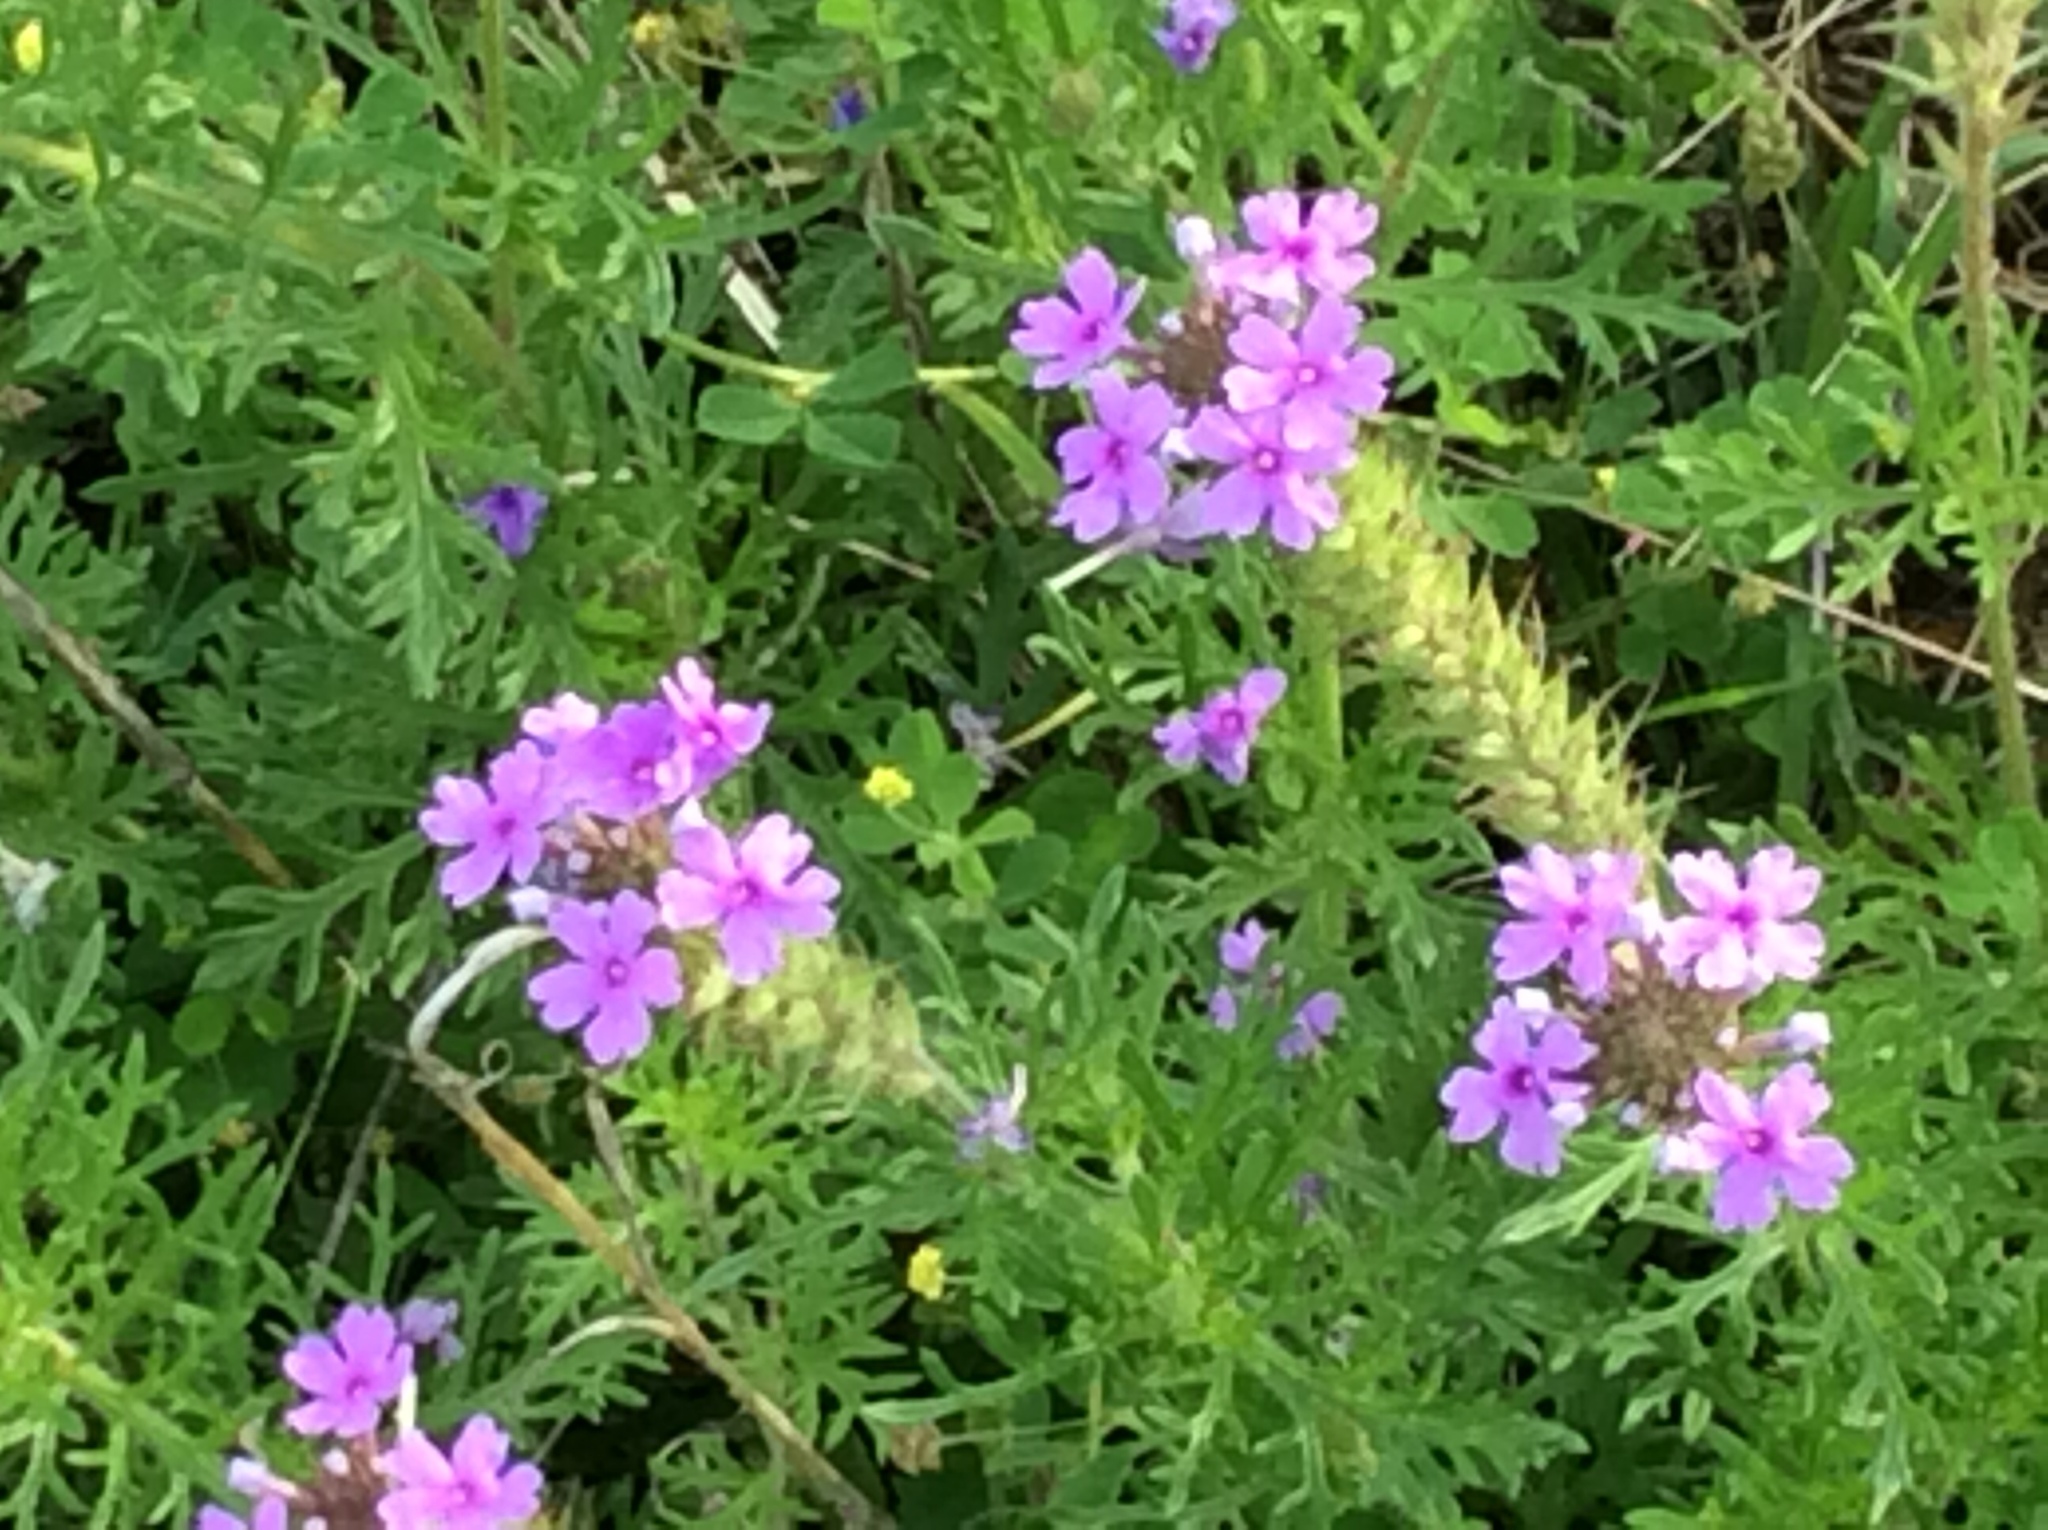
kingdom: Plantae
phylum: Tracheophyta
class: Magnoliopsida
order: Lamiales
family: Verbenaceae
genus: Verbena
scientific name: Verbena bipinnatifida
